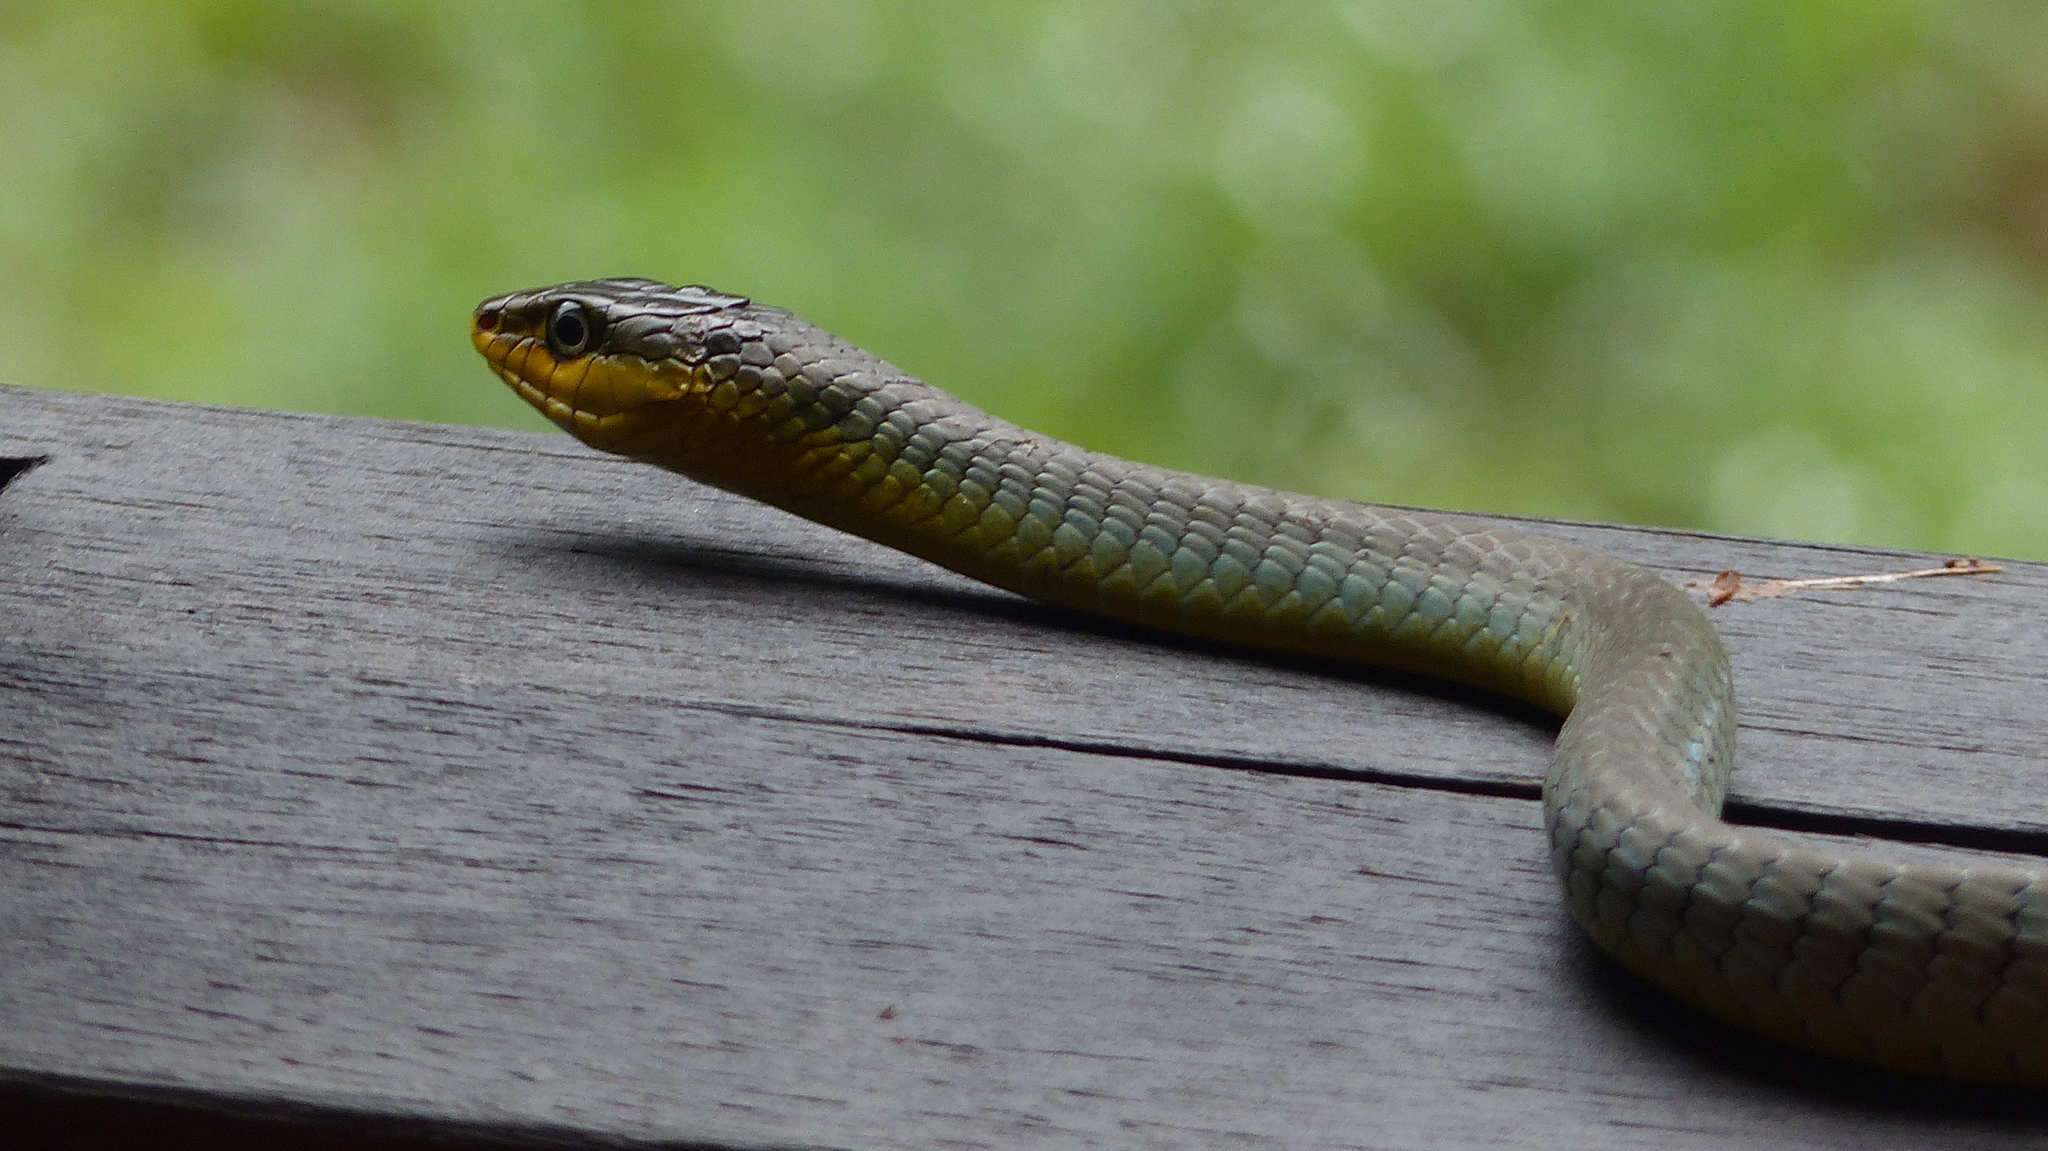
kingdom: Animalia
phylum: Chordata
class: Squamata
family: Colubridae
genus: Dendrelaphis
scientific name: Dendrelaphis punctulatus
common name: Common tree snake
